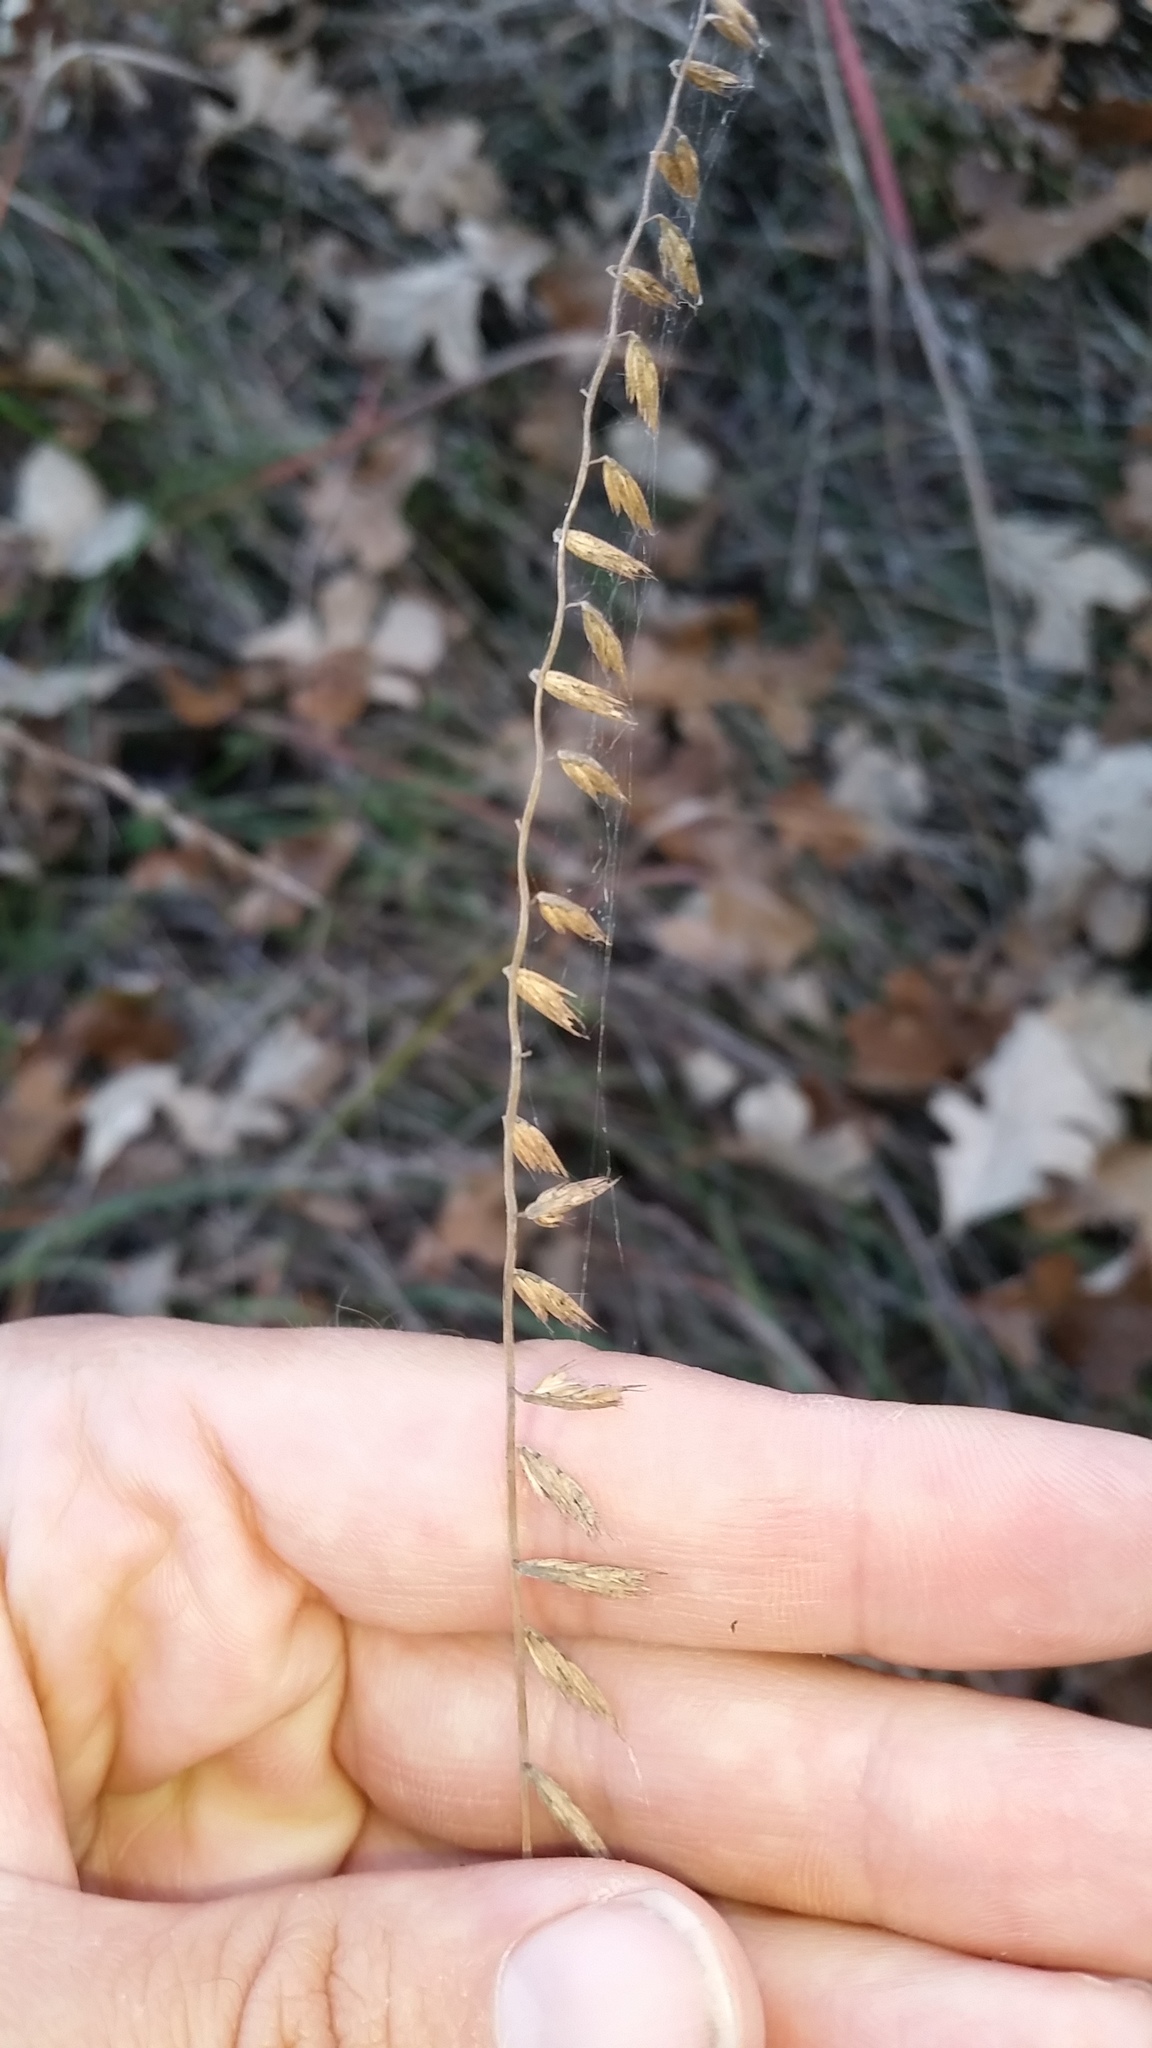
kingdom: Plantae
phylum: Tracheophyta
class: Liliopsida
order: Poales
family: Poaceae
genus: Bouteloua
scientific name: Bouteloua curtipendula
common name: Side-oats grama
